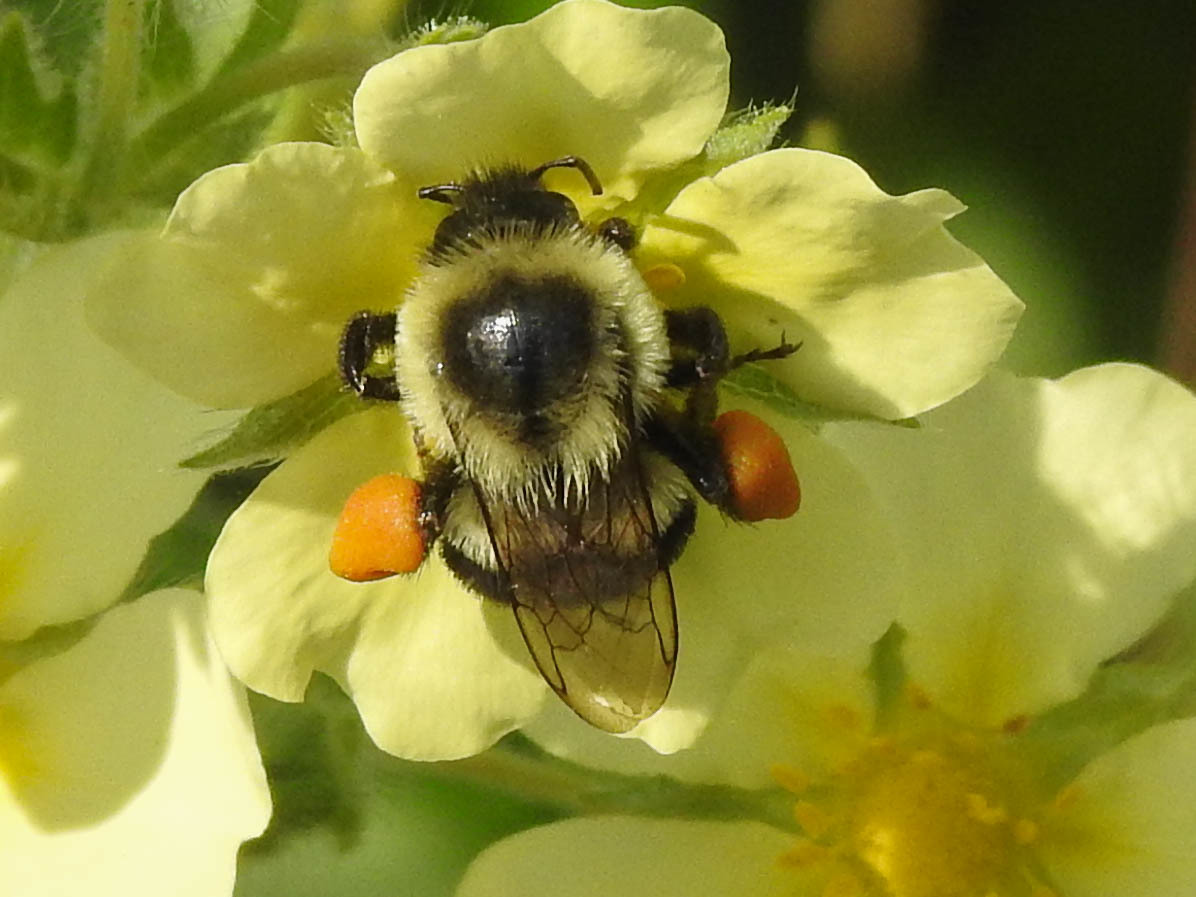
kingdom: Animalia
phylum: Arthropoda
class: Insecta
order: Hymenoptera
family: Apidae
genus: Bombus
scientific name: Bombus impatiens
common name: Common eastern bumble bee
